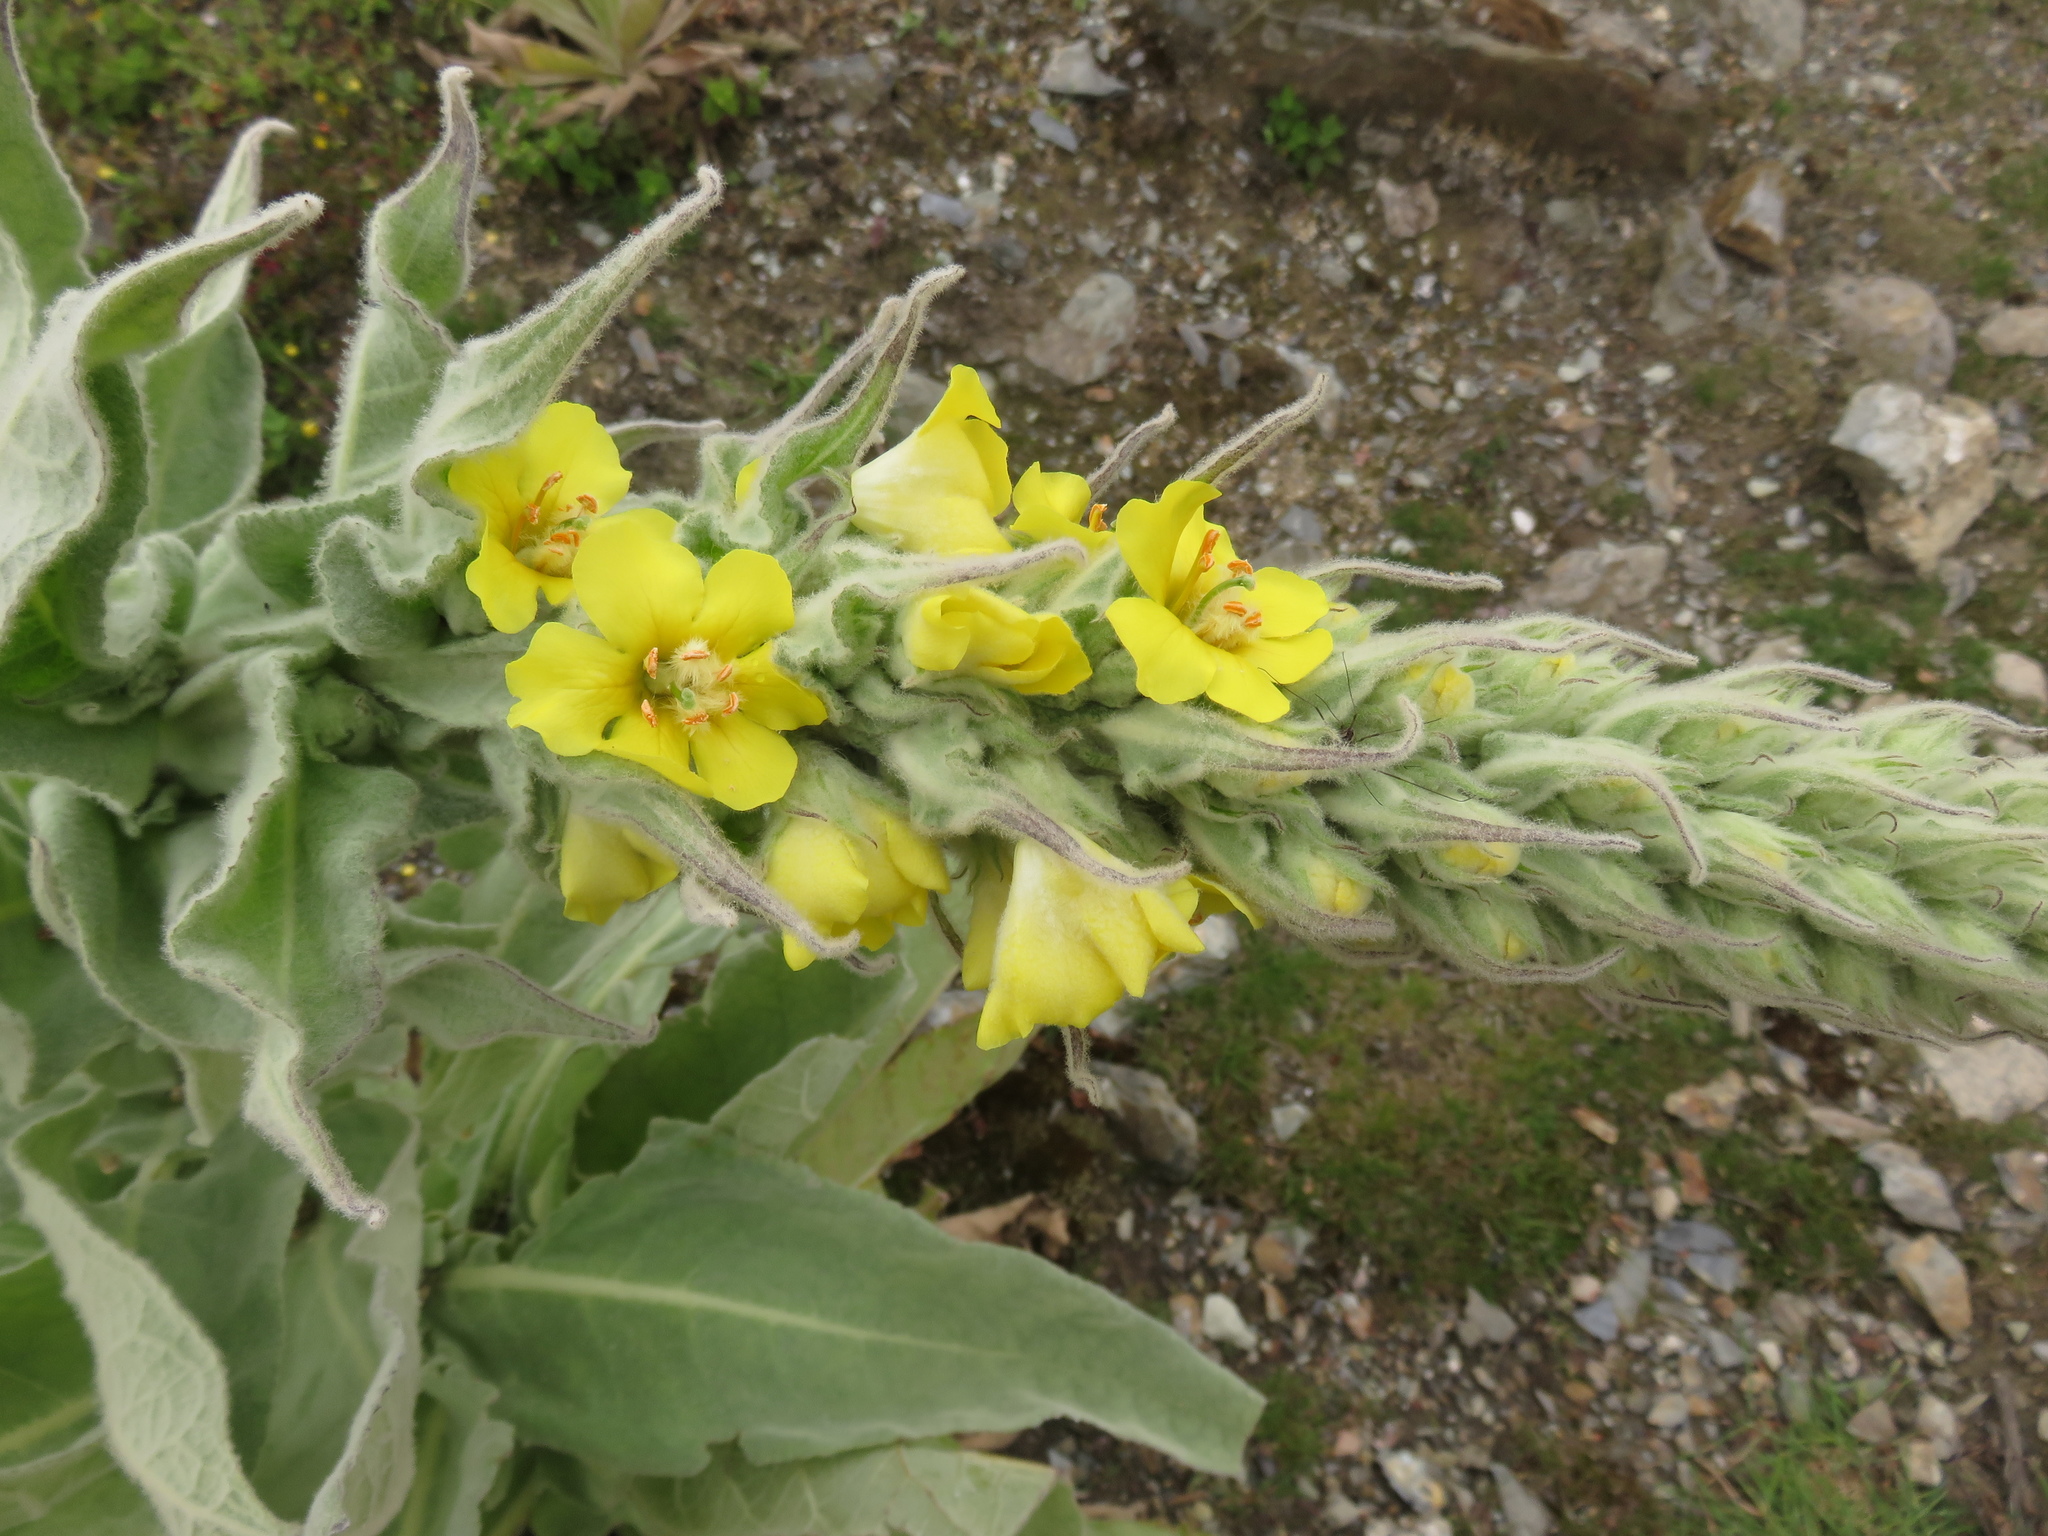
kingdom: Plantae
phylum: Tracheophyta
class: Magnoliopsida
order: Lamiales
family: Scrophulariaceae
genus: Verbascum
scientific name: Verbascum thapsus
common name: Common mullein
